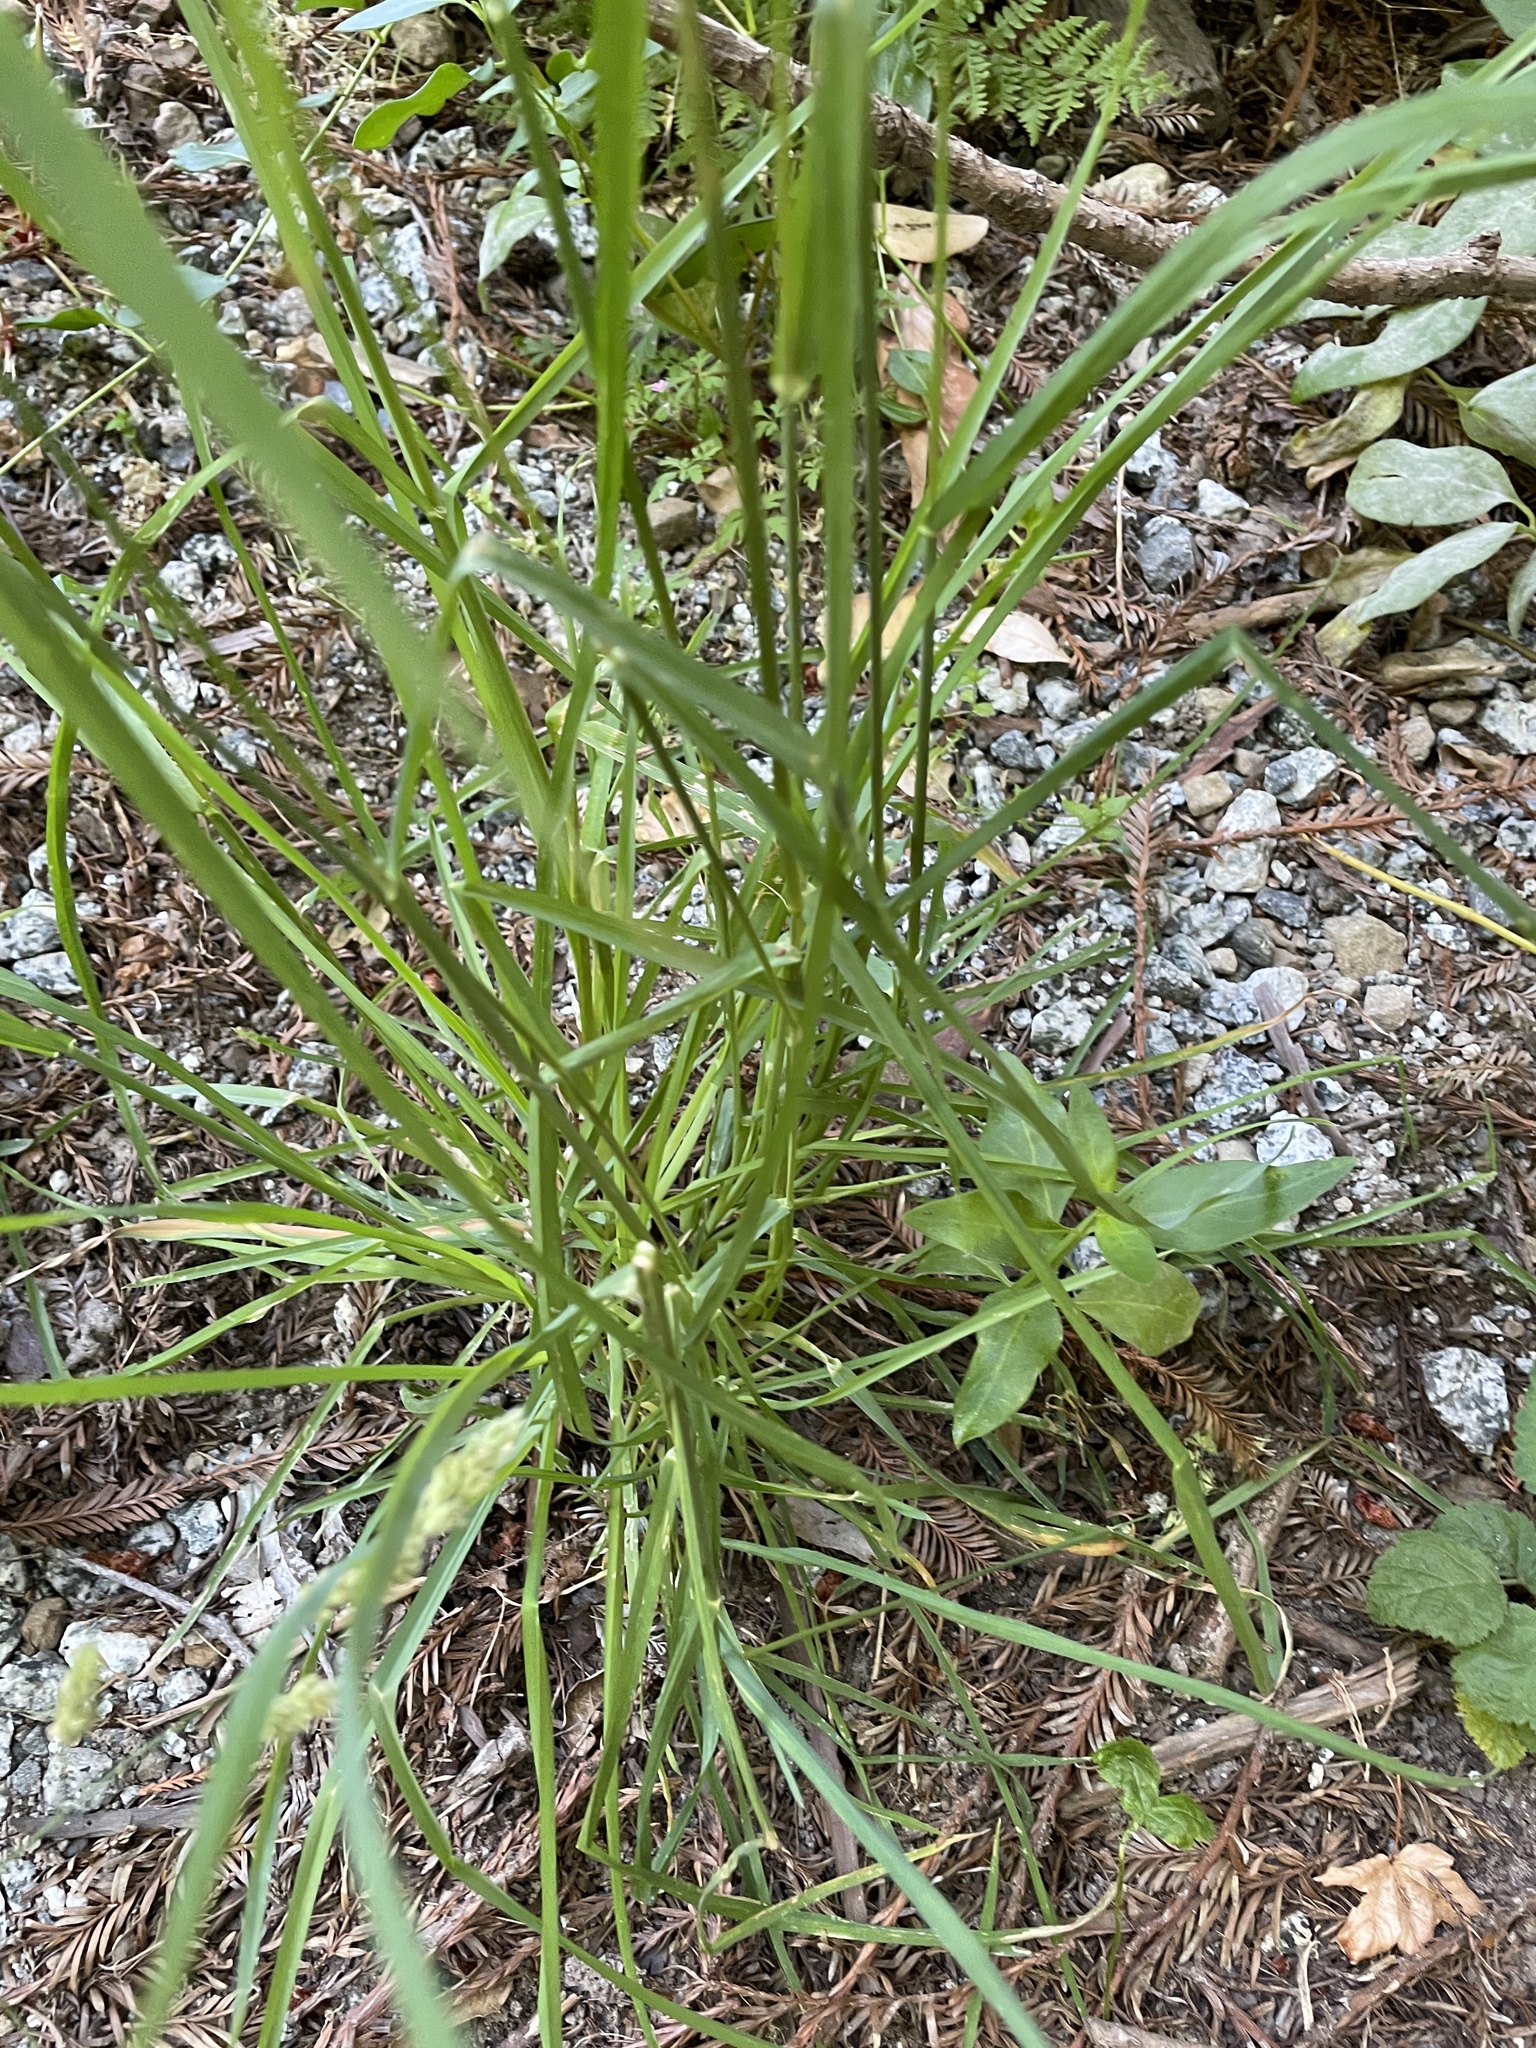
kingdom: Plantae
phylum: Tracheophyta
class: Liliopsida
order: Poales
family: Poaceae
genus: Dactylis
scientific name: Dactylis glomerata
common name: Orchardgrass
